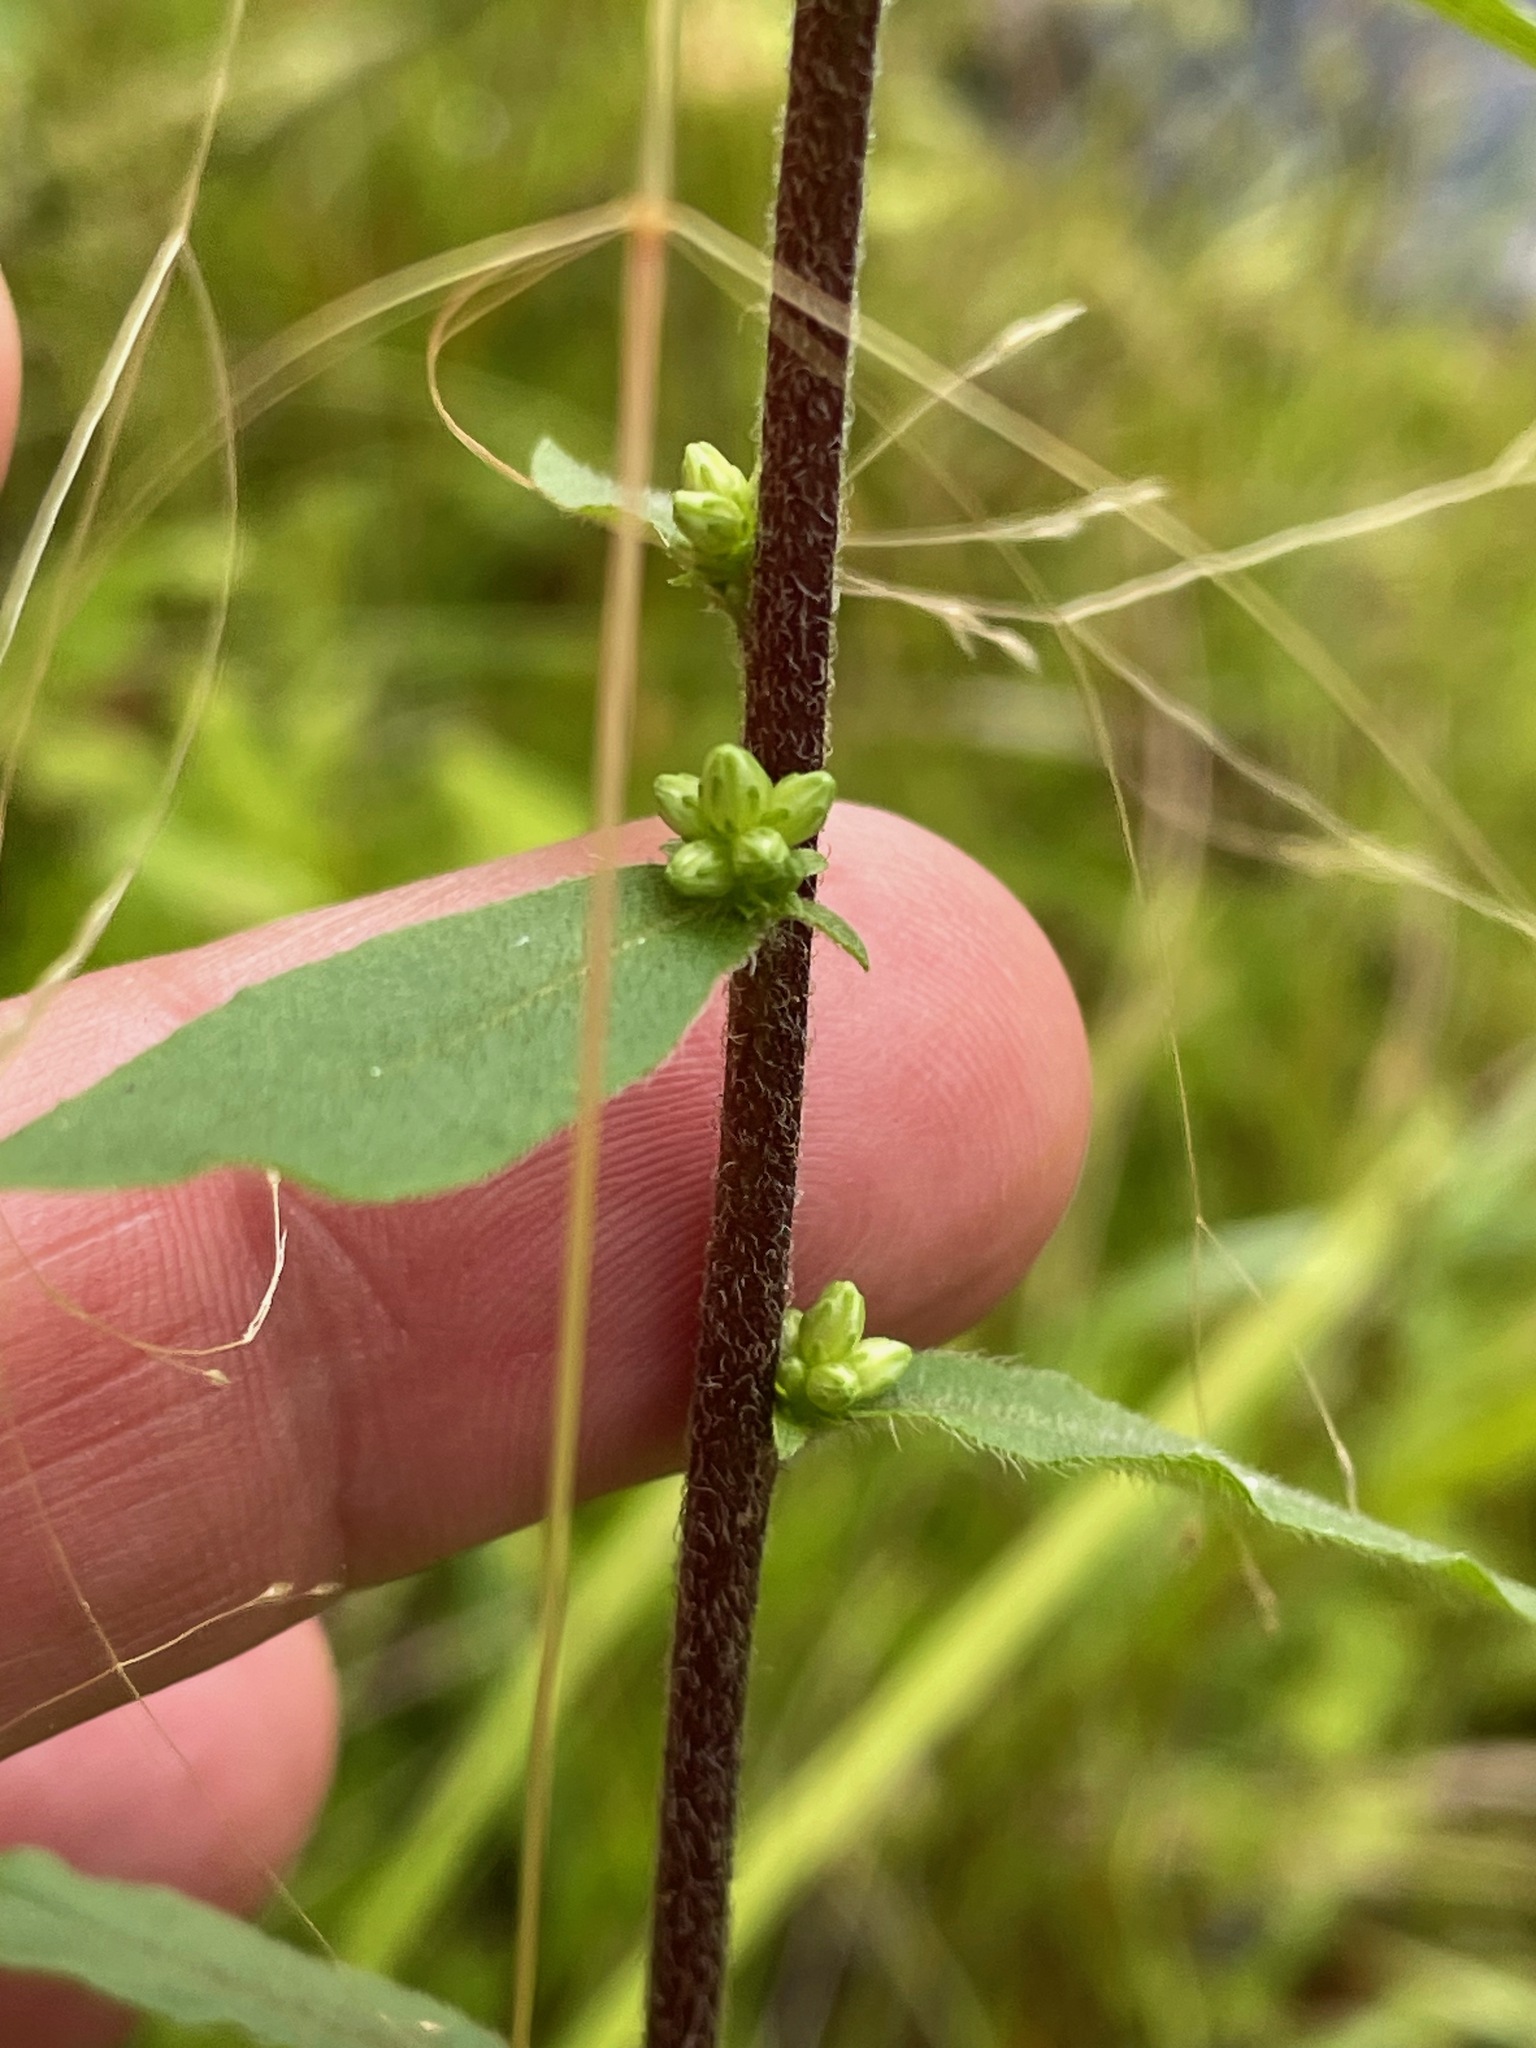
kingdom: Plantae
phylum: Tracheophyta
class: Magnoliopsida
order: Asterales
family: Asteraceae
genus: Solidago
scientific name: Solidago bicolor
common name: Silverrod
